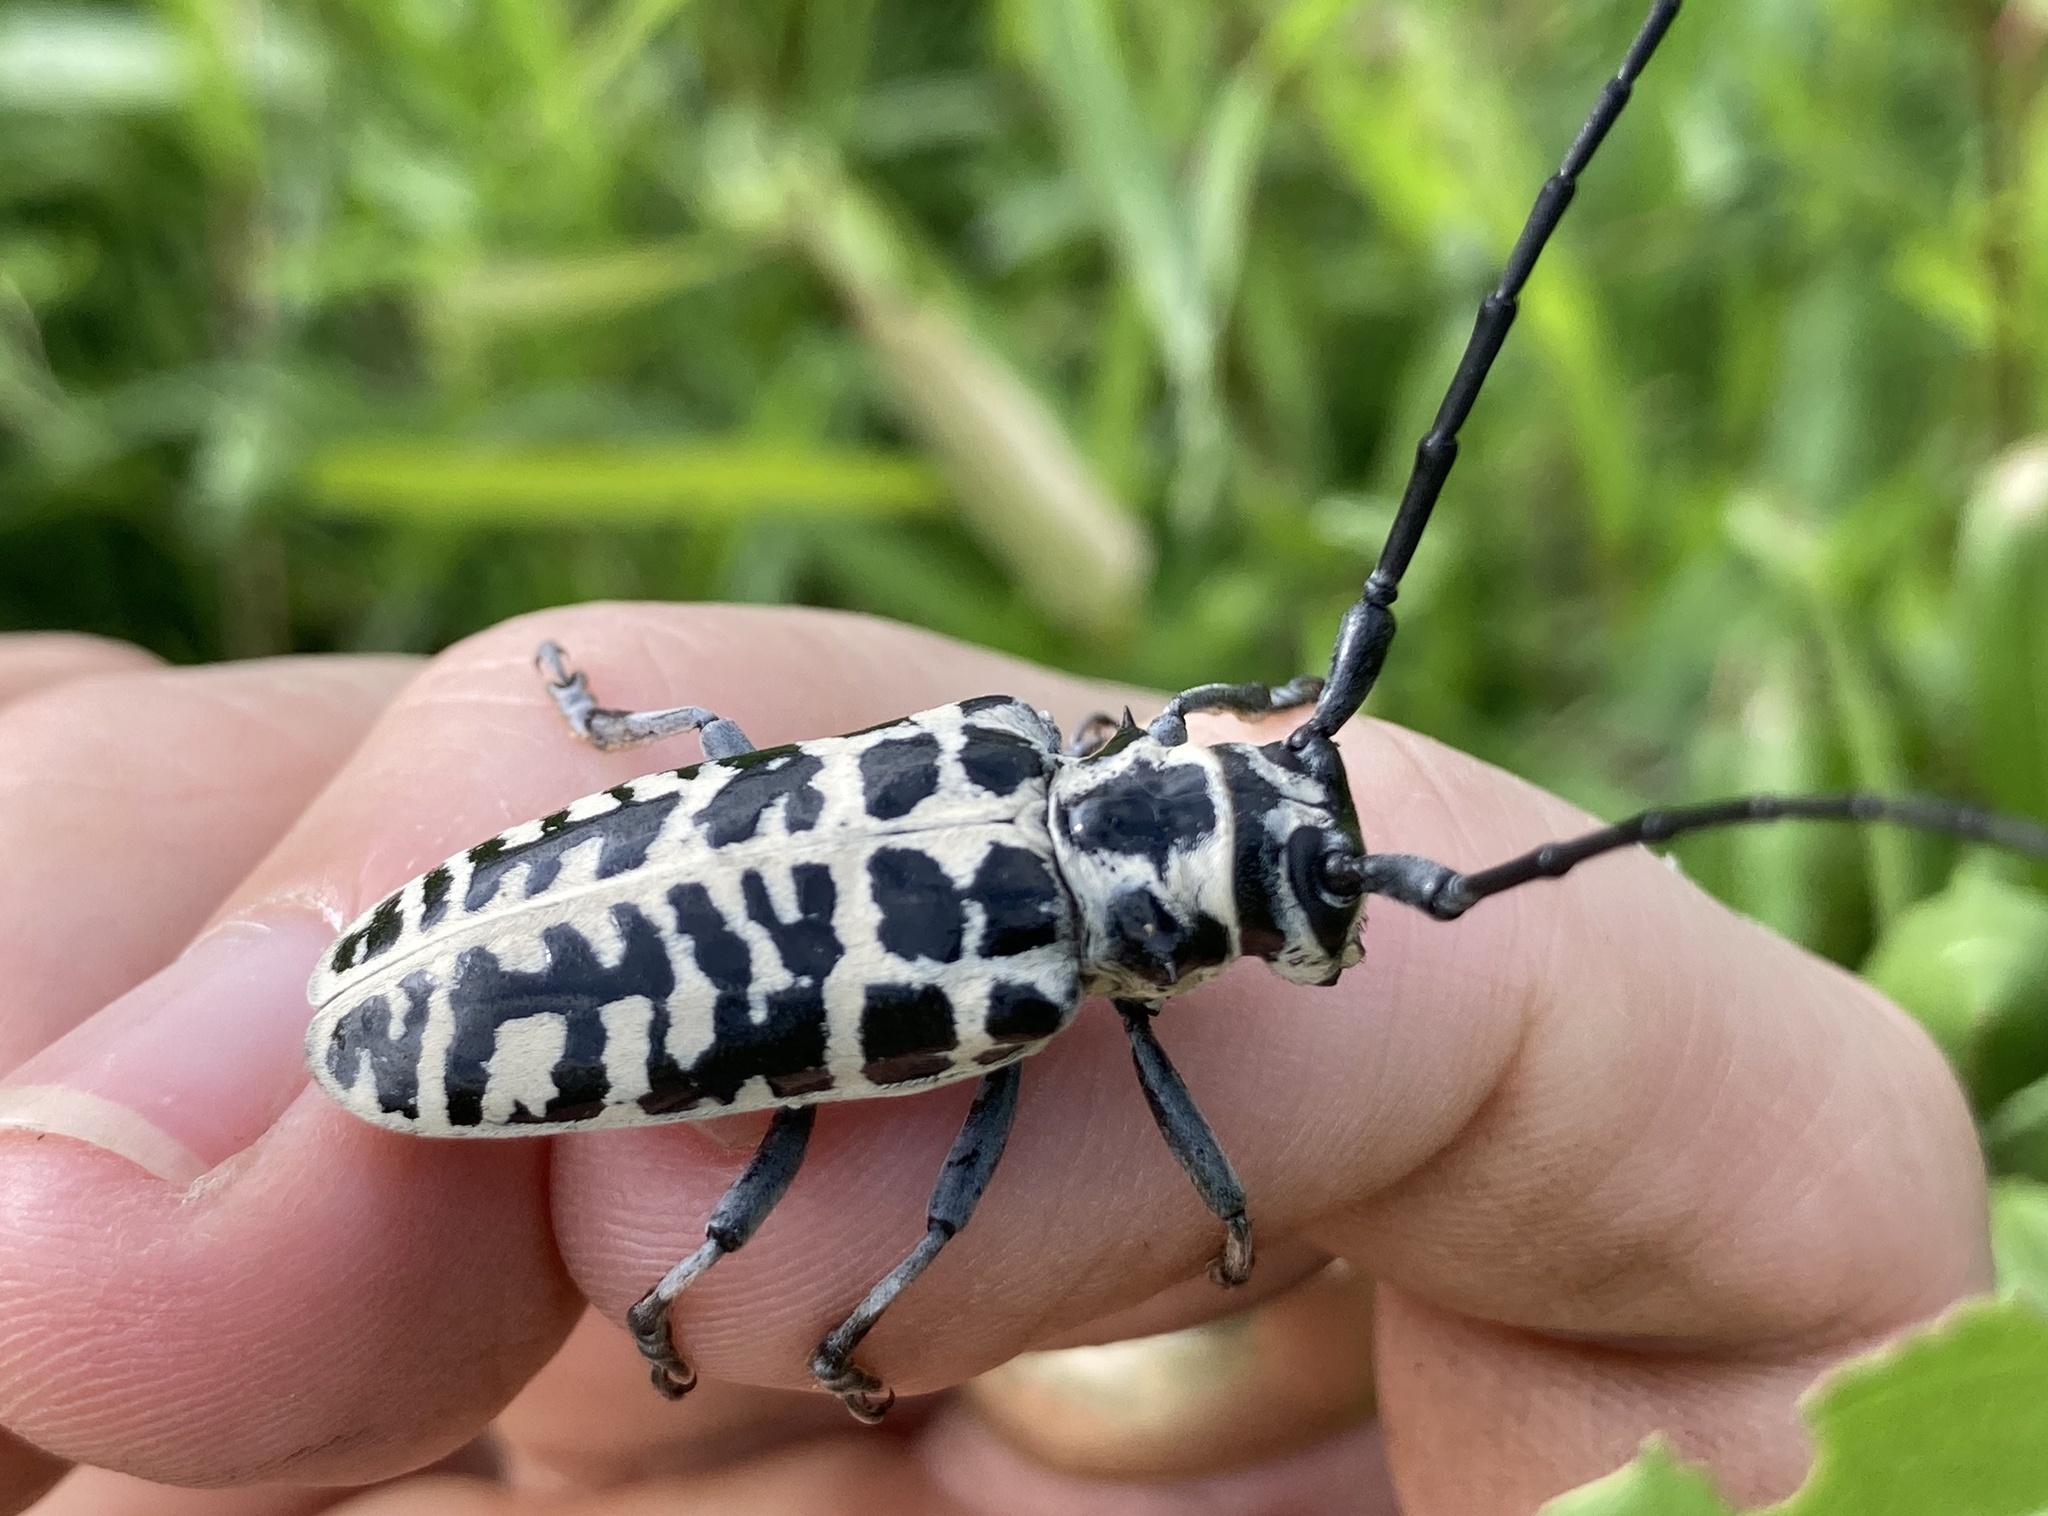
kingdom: Animalia
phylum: Arthropoda
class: Insecta
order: Coleoptera
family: Cerambycidae
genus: Plectrodera
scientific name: Plectrodera scalator
